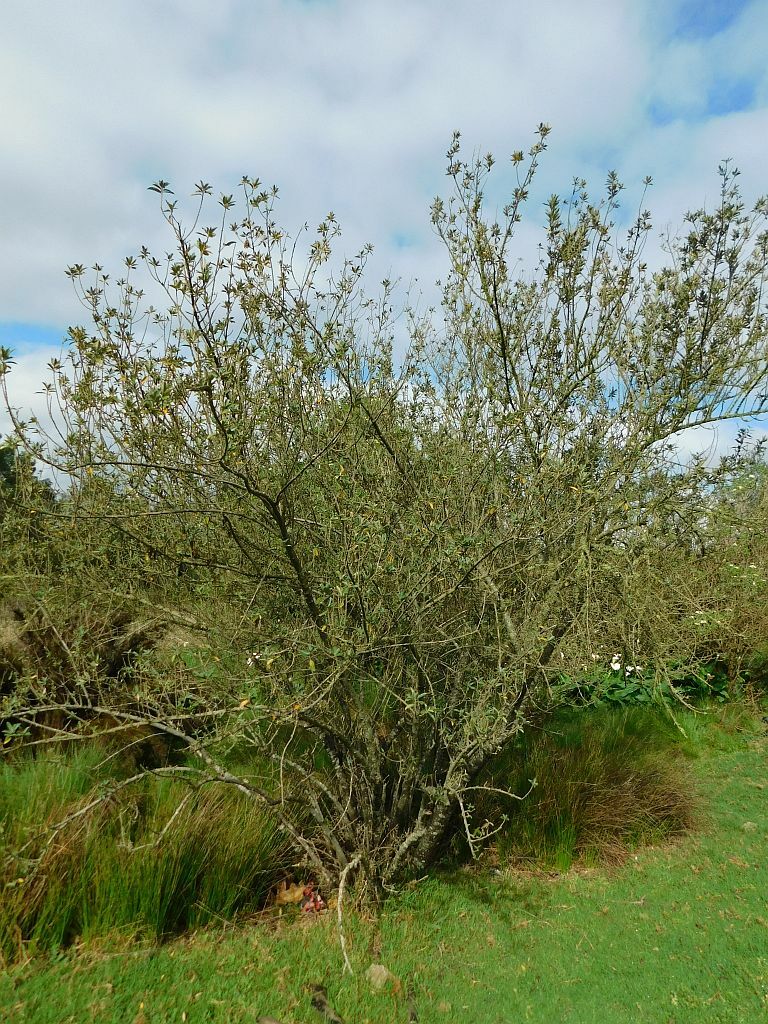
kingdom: Plantae
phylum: Tracheophyta
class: Magnoliopsida
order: Malpighiales
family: Achariaceae
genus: Kiggelaria
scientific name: Kiggelaria africana
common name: Wild peach
